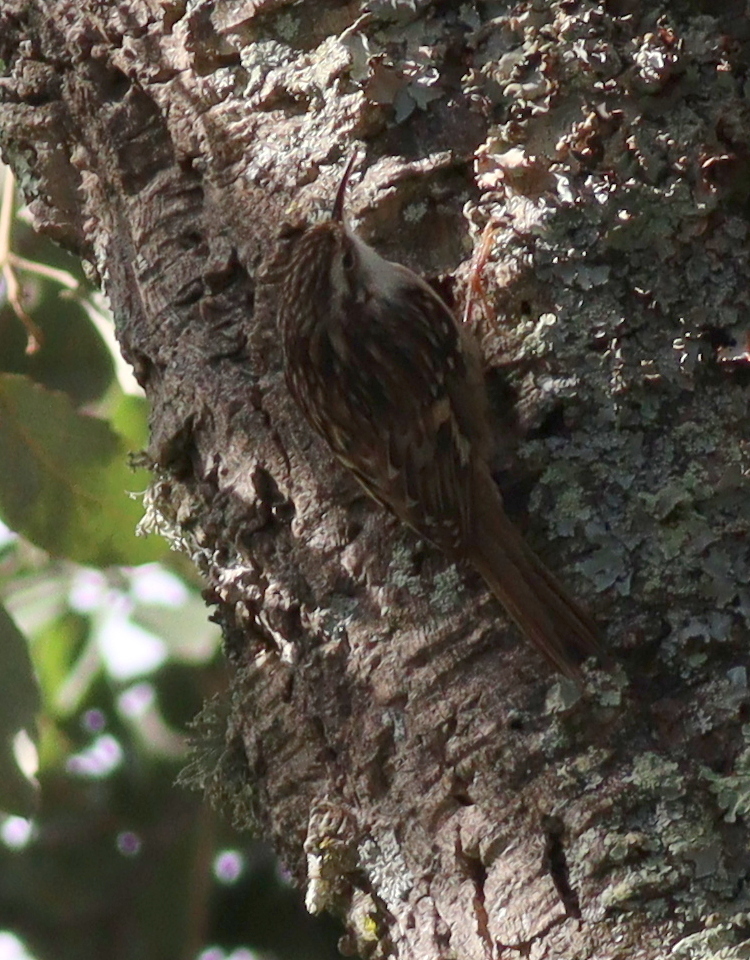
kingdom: Animalia
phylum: Chordata
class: Aves
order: Passeriformes
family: Certhiidae
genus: Certhia
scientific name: Certhia brachydactyla
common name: Short-toed treecreeper
